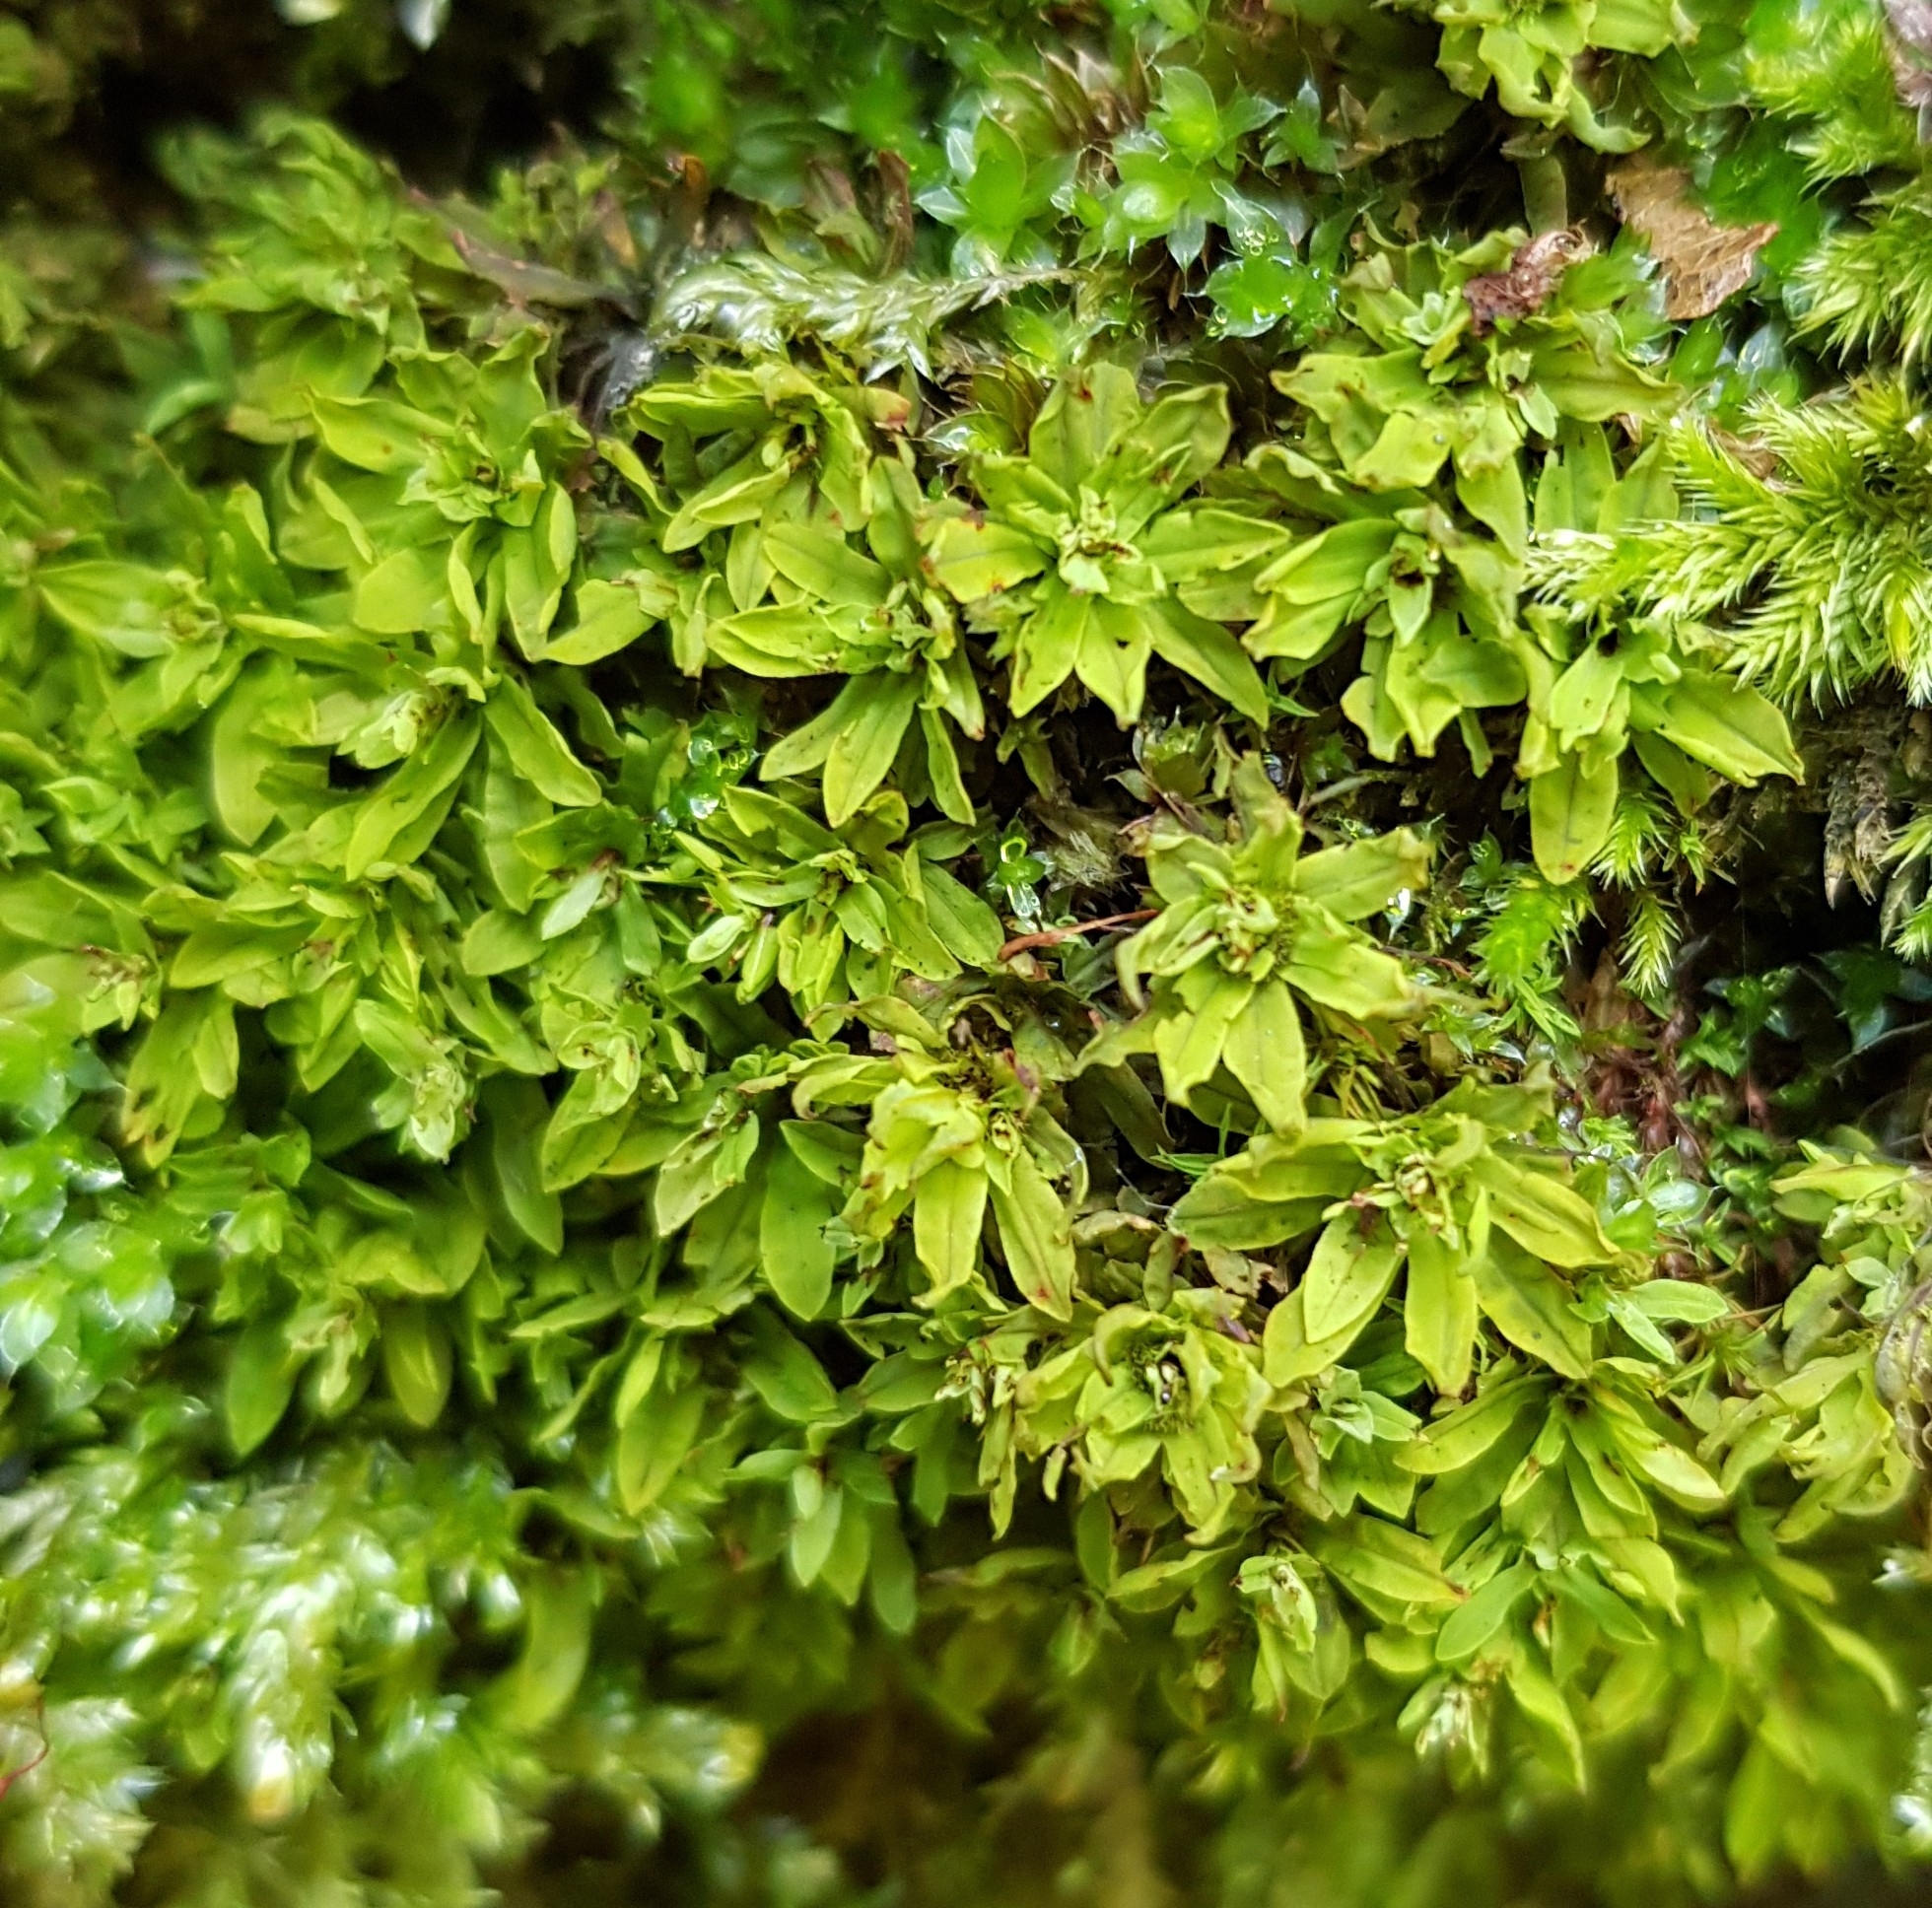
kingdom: Plantae
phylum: Bryophyta
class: Bryopsida
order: Encalyptales
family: Encalyptaceae
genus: Encalypta
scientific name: Encalypta streptocarpa
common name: Spiral extinguisher-moss
